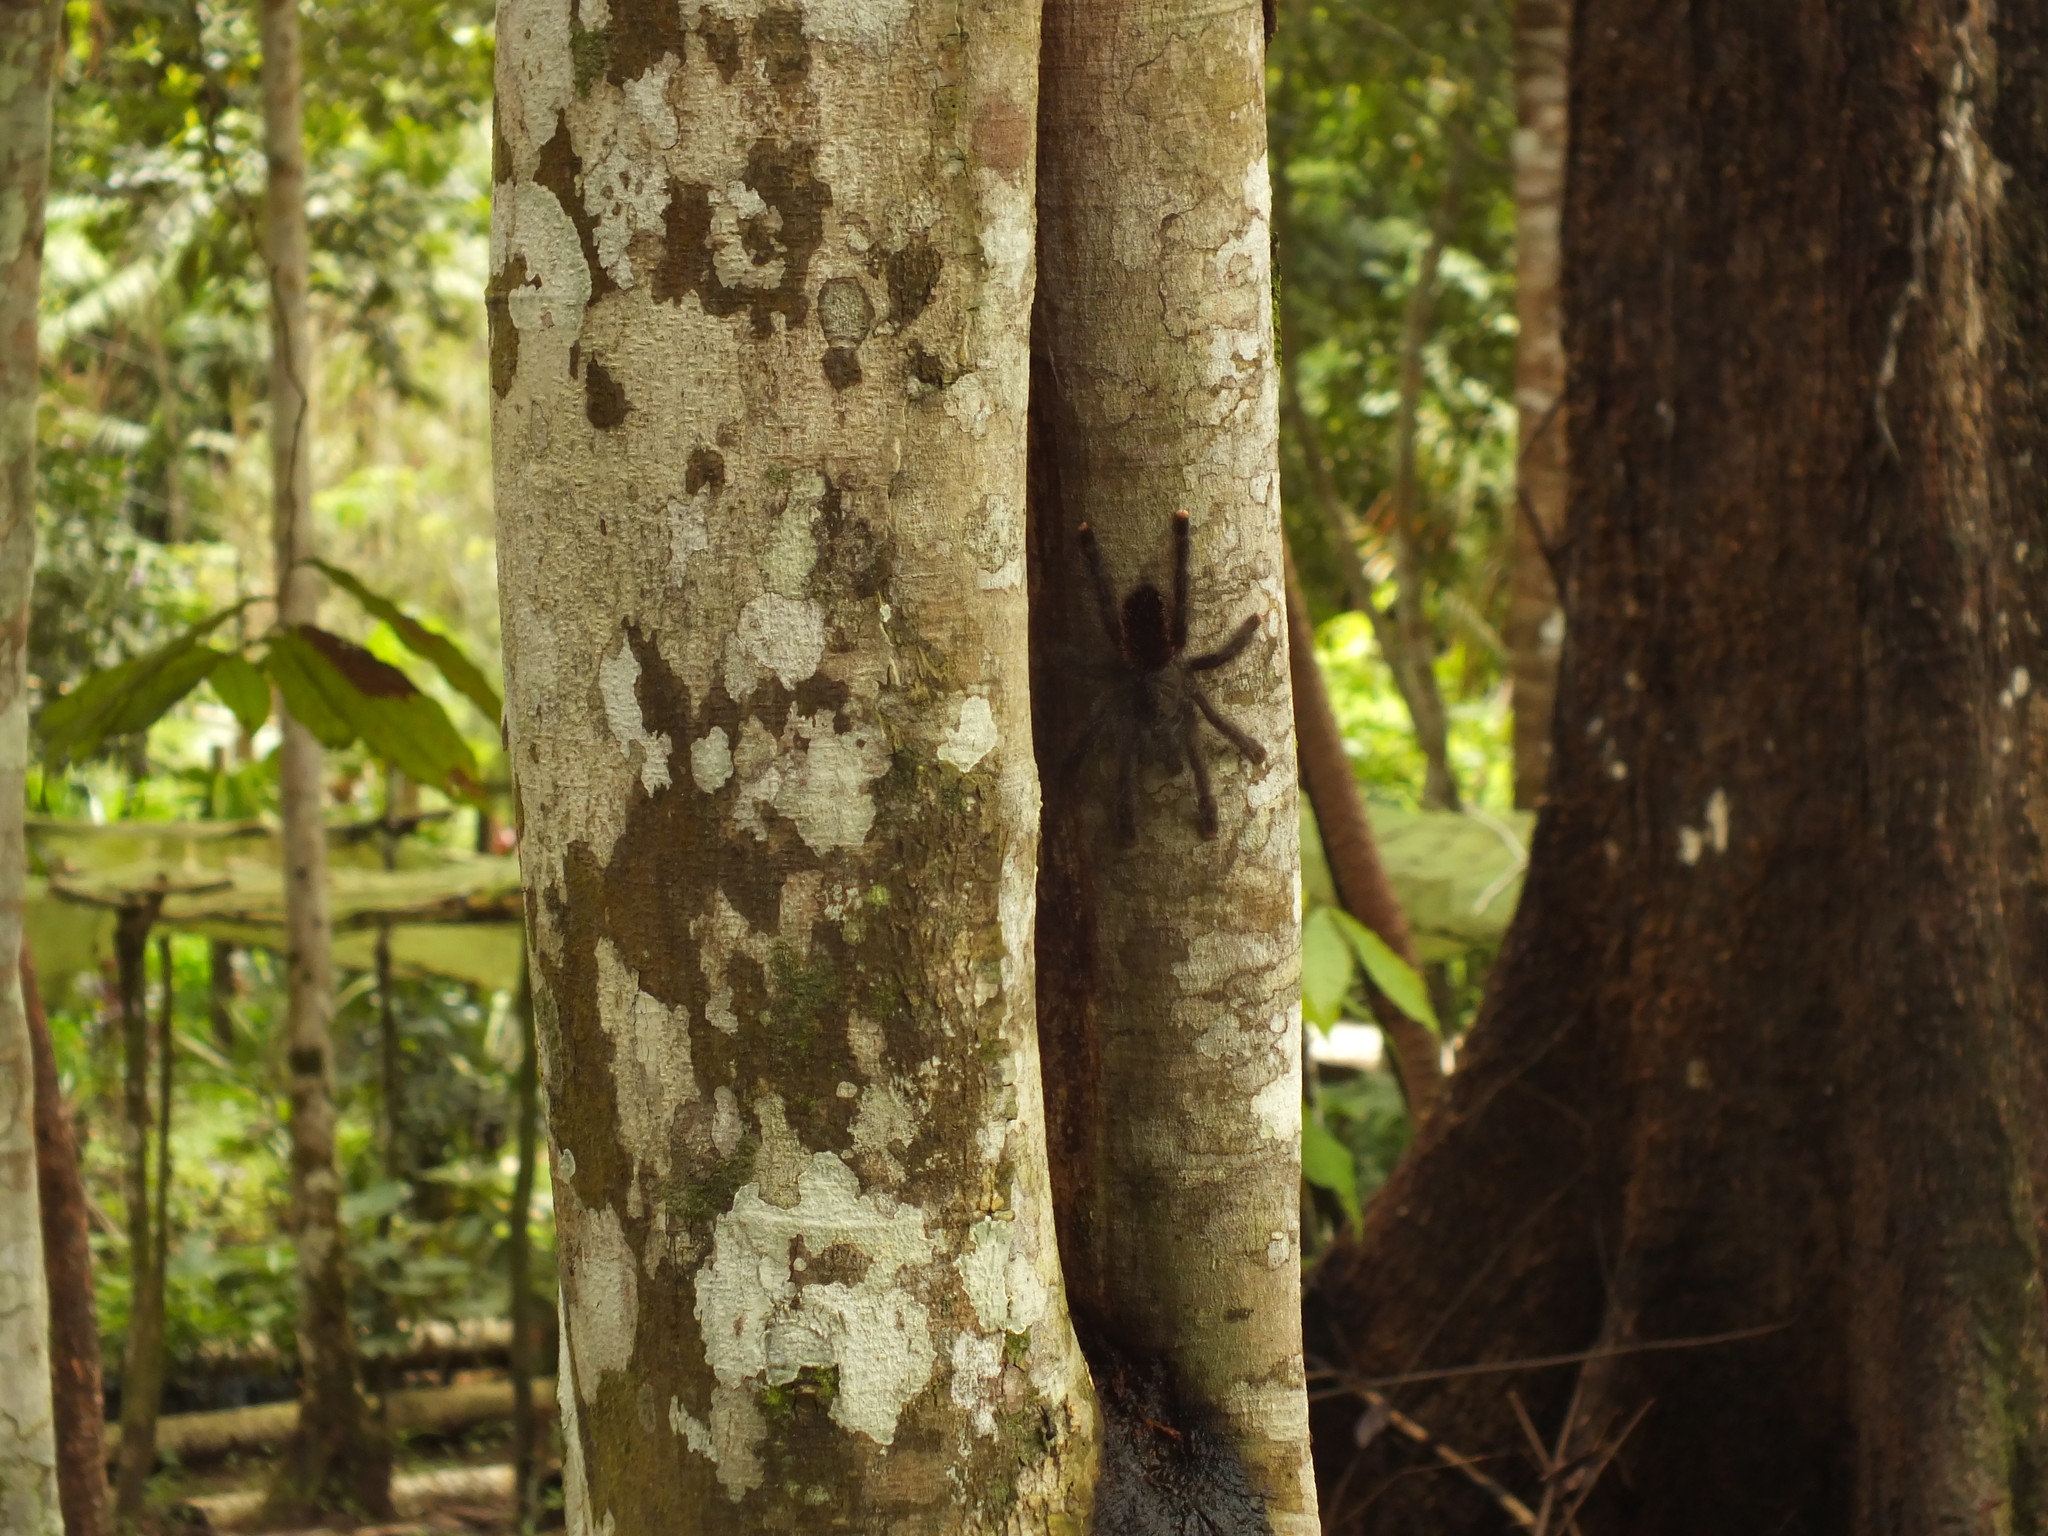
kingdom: Animalia
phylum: Arthropoda
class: Arachnida
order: Araneae
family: Theraphosidae
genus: Avicularia
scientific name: Avicularia juruensis
